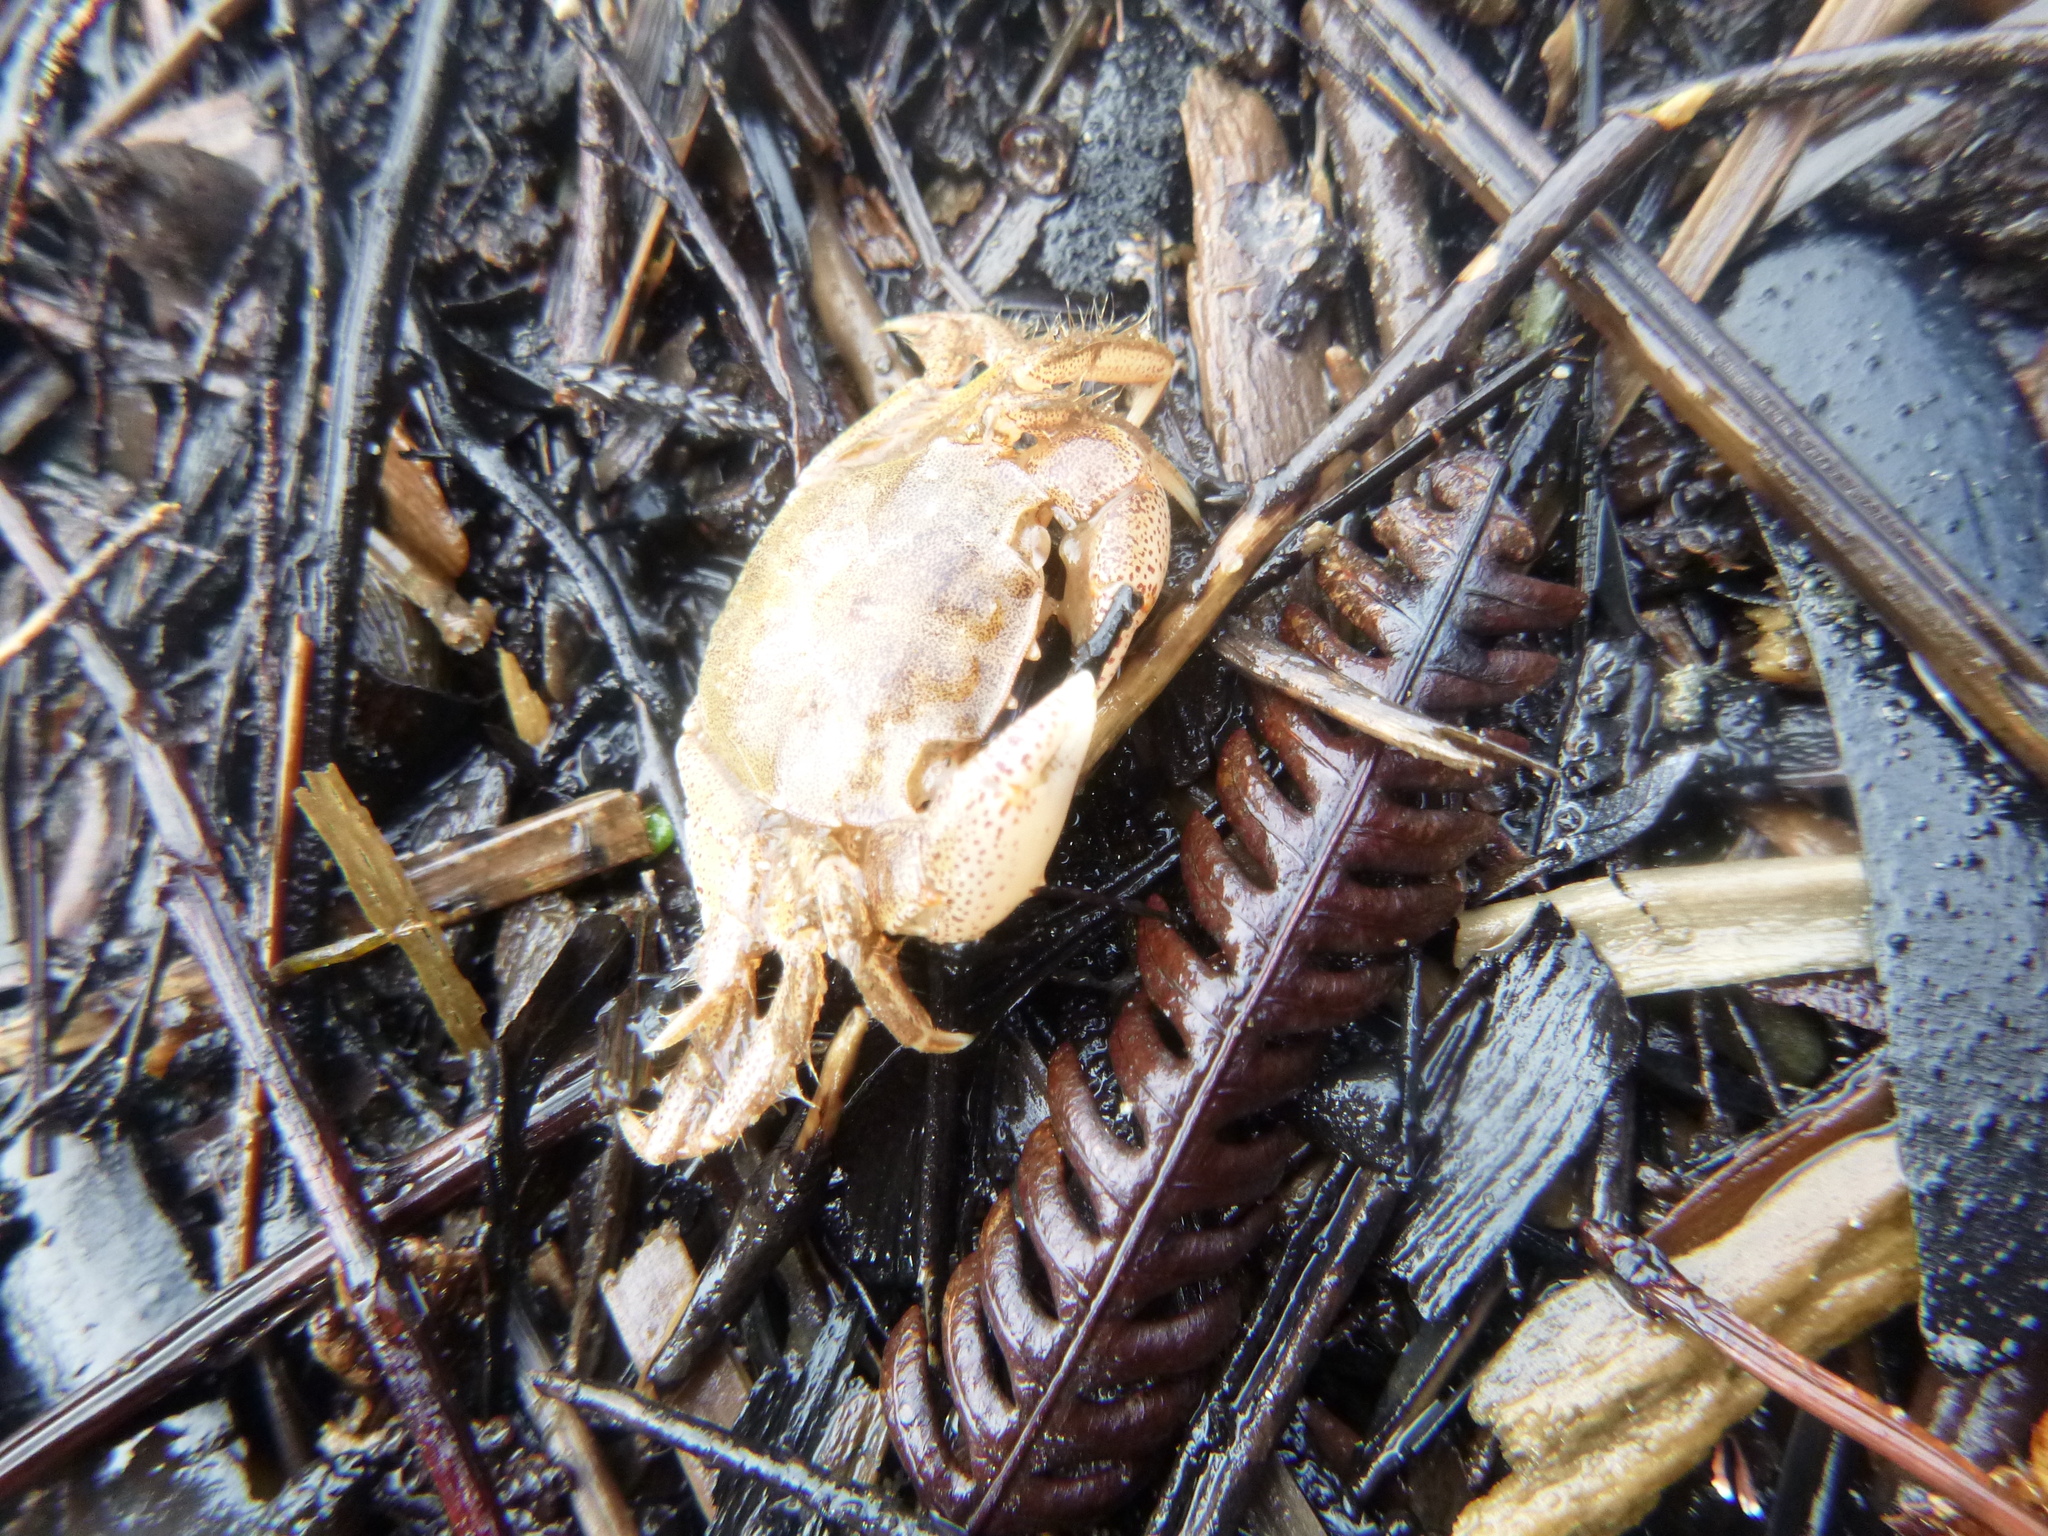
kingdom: Animalia
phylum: Arthropoda
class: Malacostraca
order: Decapoda
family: Varunidae
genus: Hemigrapsus
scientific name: Hemigrapsus crenulatus
